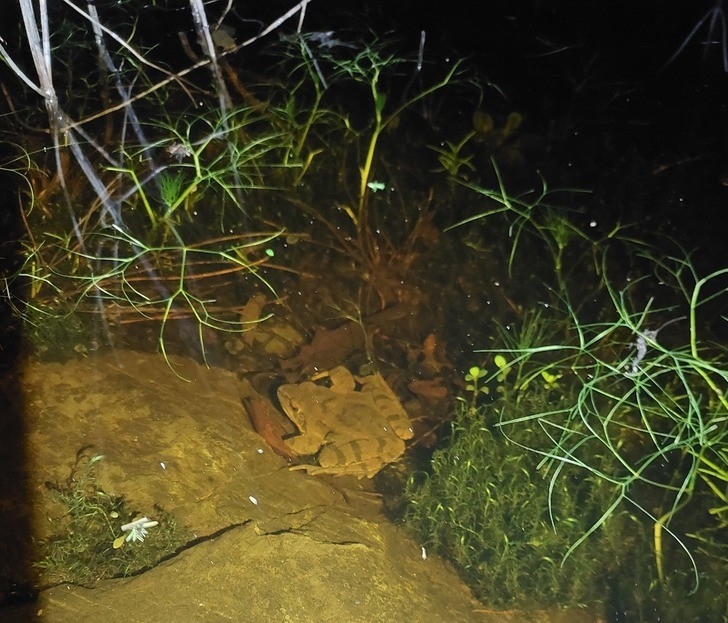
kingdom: Animalia
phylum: Chordata
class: Amphibia
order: Anura
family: Ranidae
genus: Rana
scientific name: Rana dalmatina
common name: Agile frog
